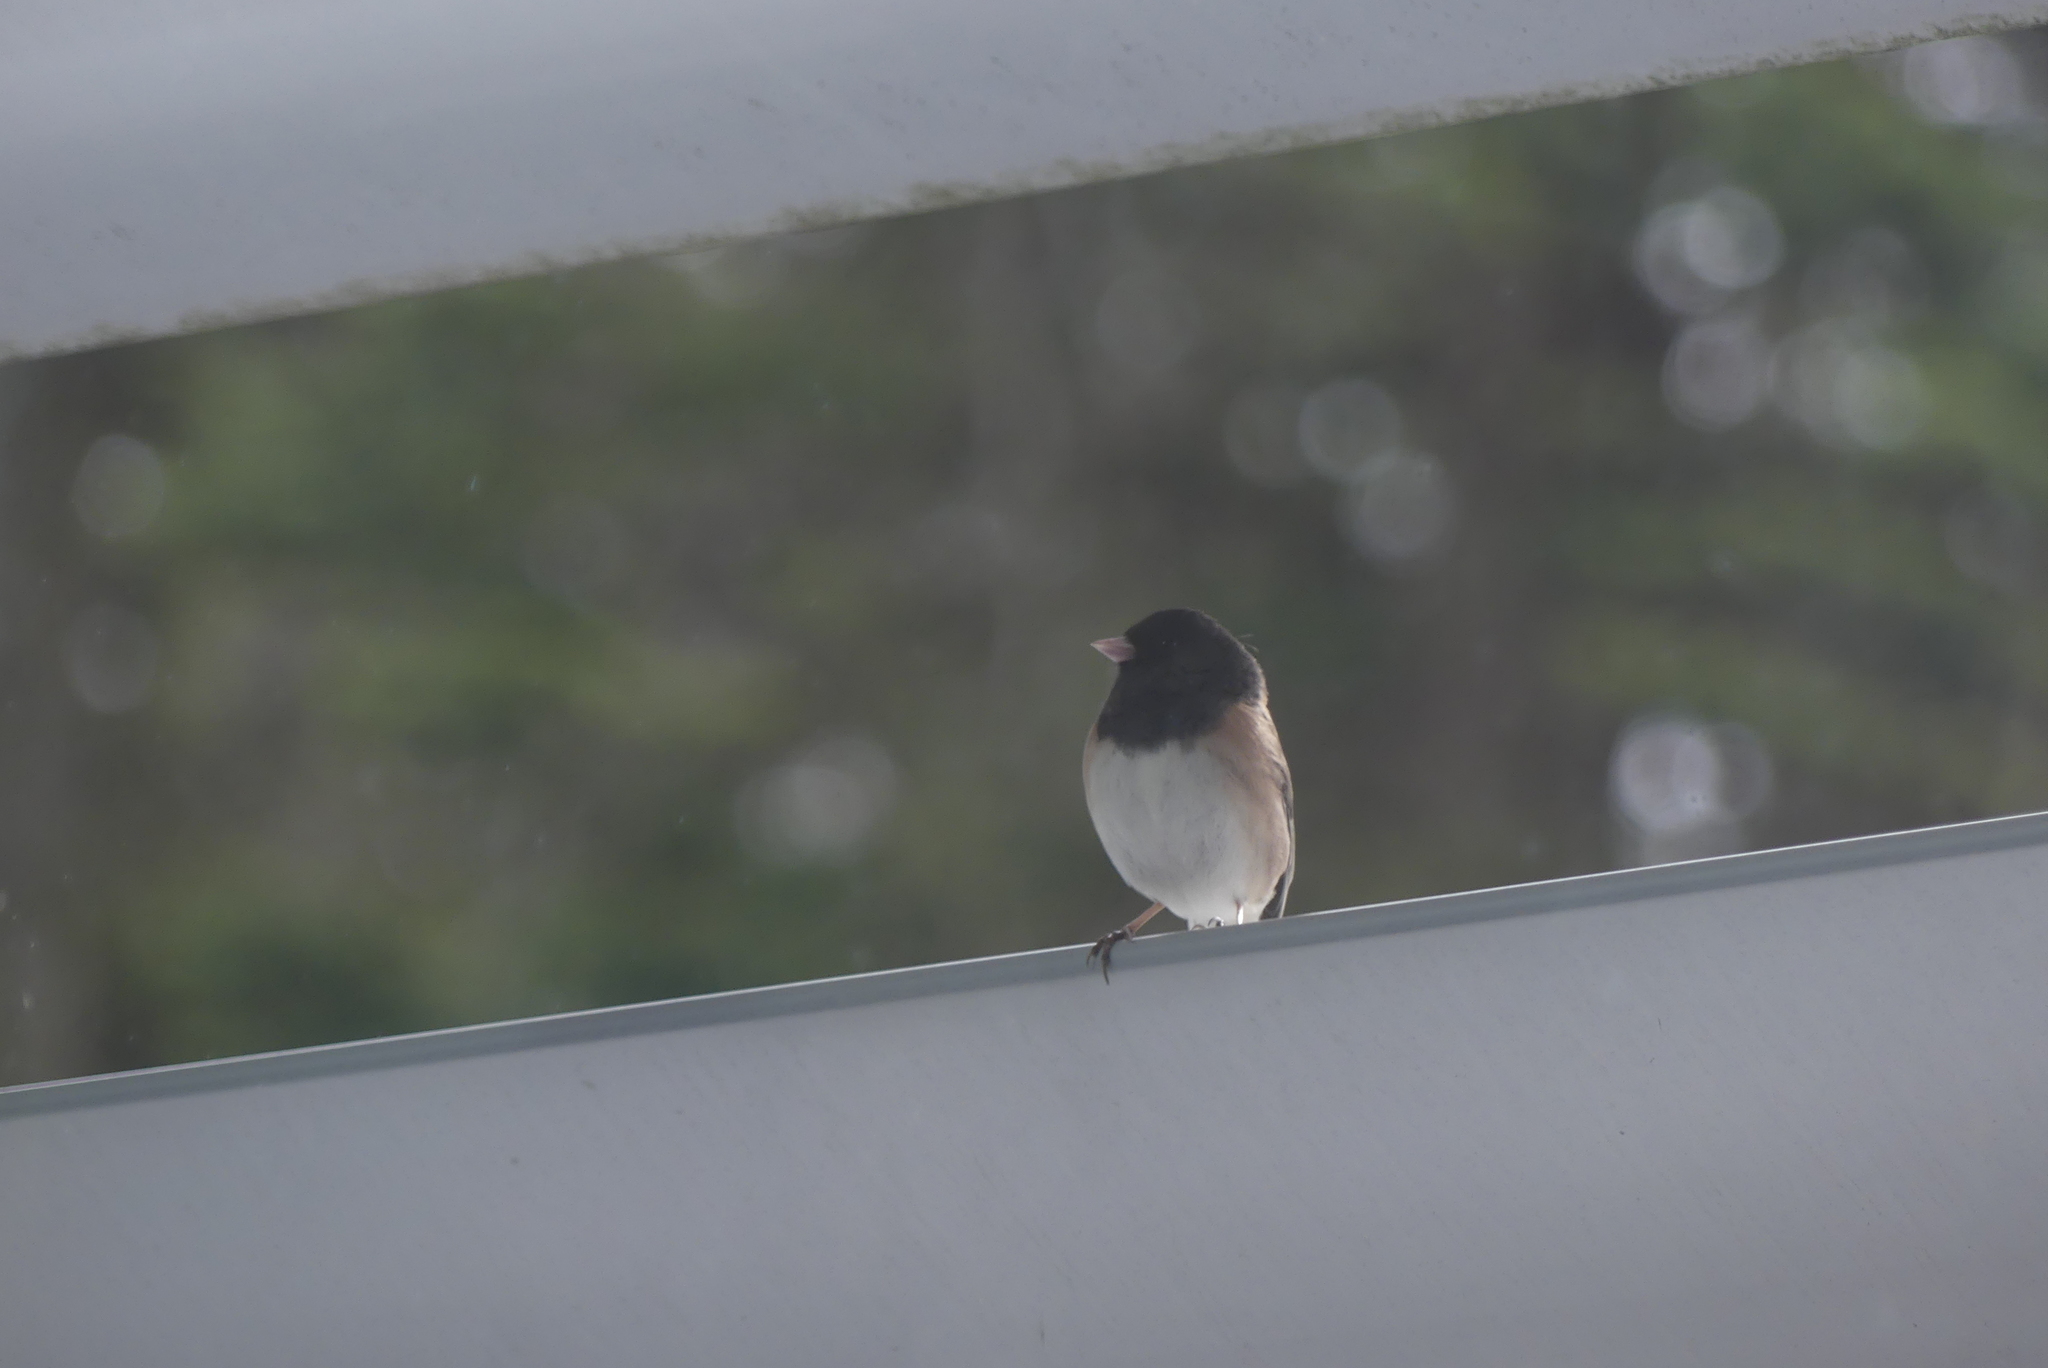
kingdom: Animalia
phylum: Chordata
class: Aves
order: Passeriformes
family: Passerellidae
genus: Junco
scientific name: Junco hyemalis
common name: Dark-eyed junco
